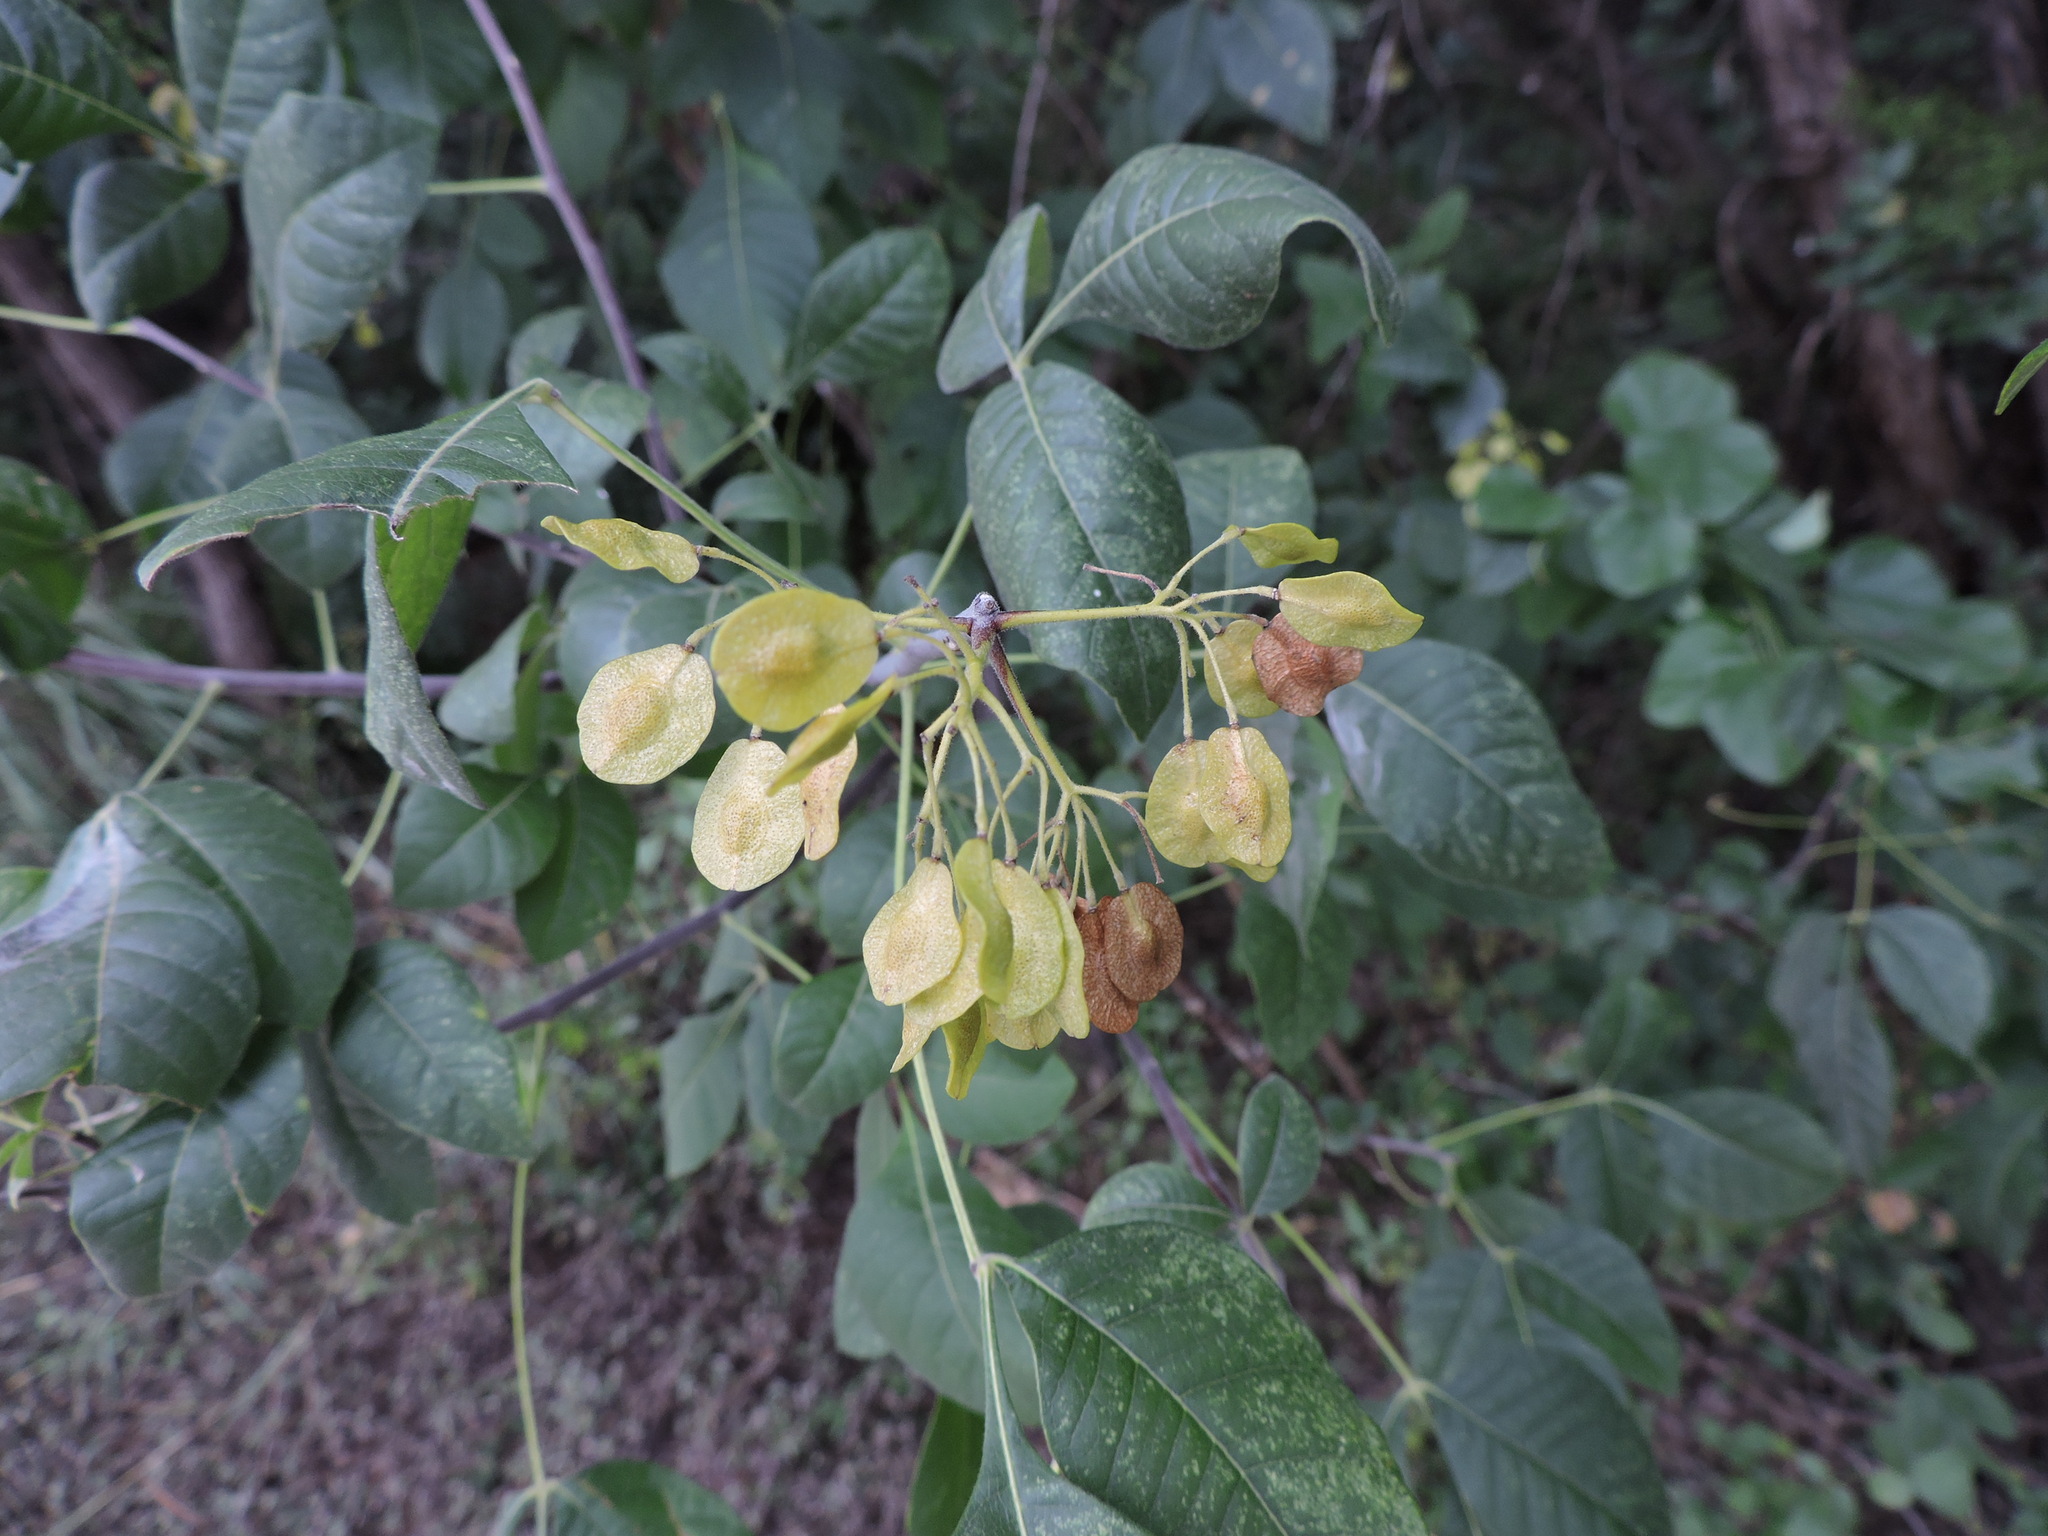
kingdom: Plantae
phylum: Tracheophyta
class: Magnoliopsida
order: Sapindales
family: Rutaceae
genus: Ptelea
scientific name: Ptelea trifoliata
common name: Common hop-tree
